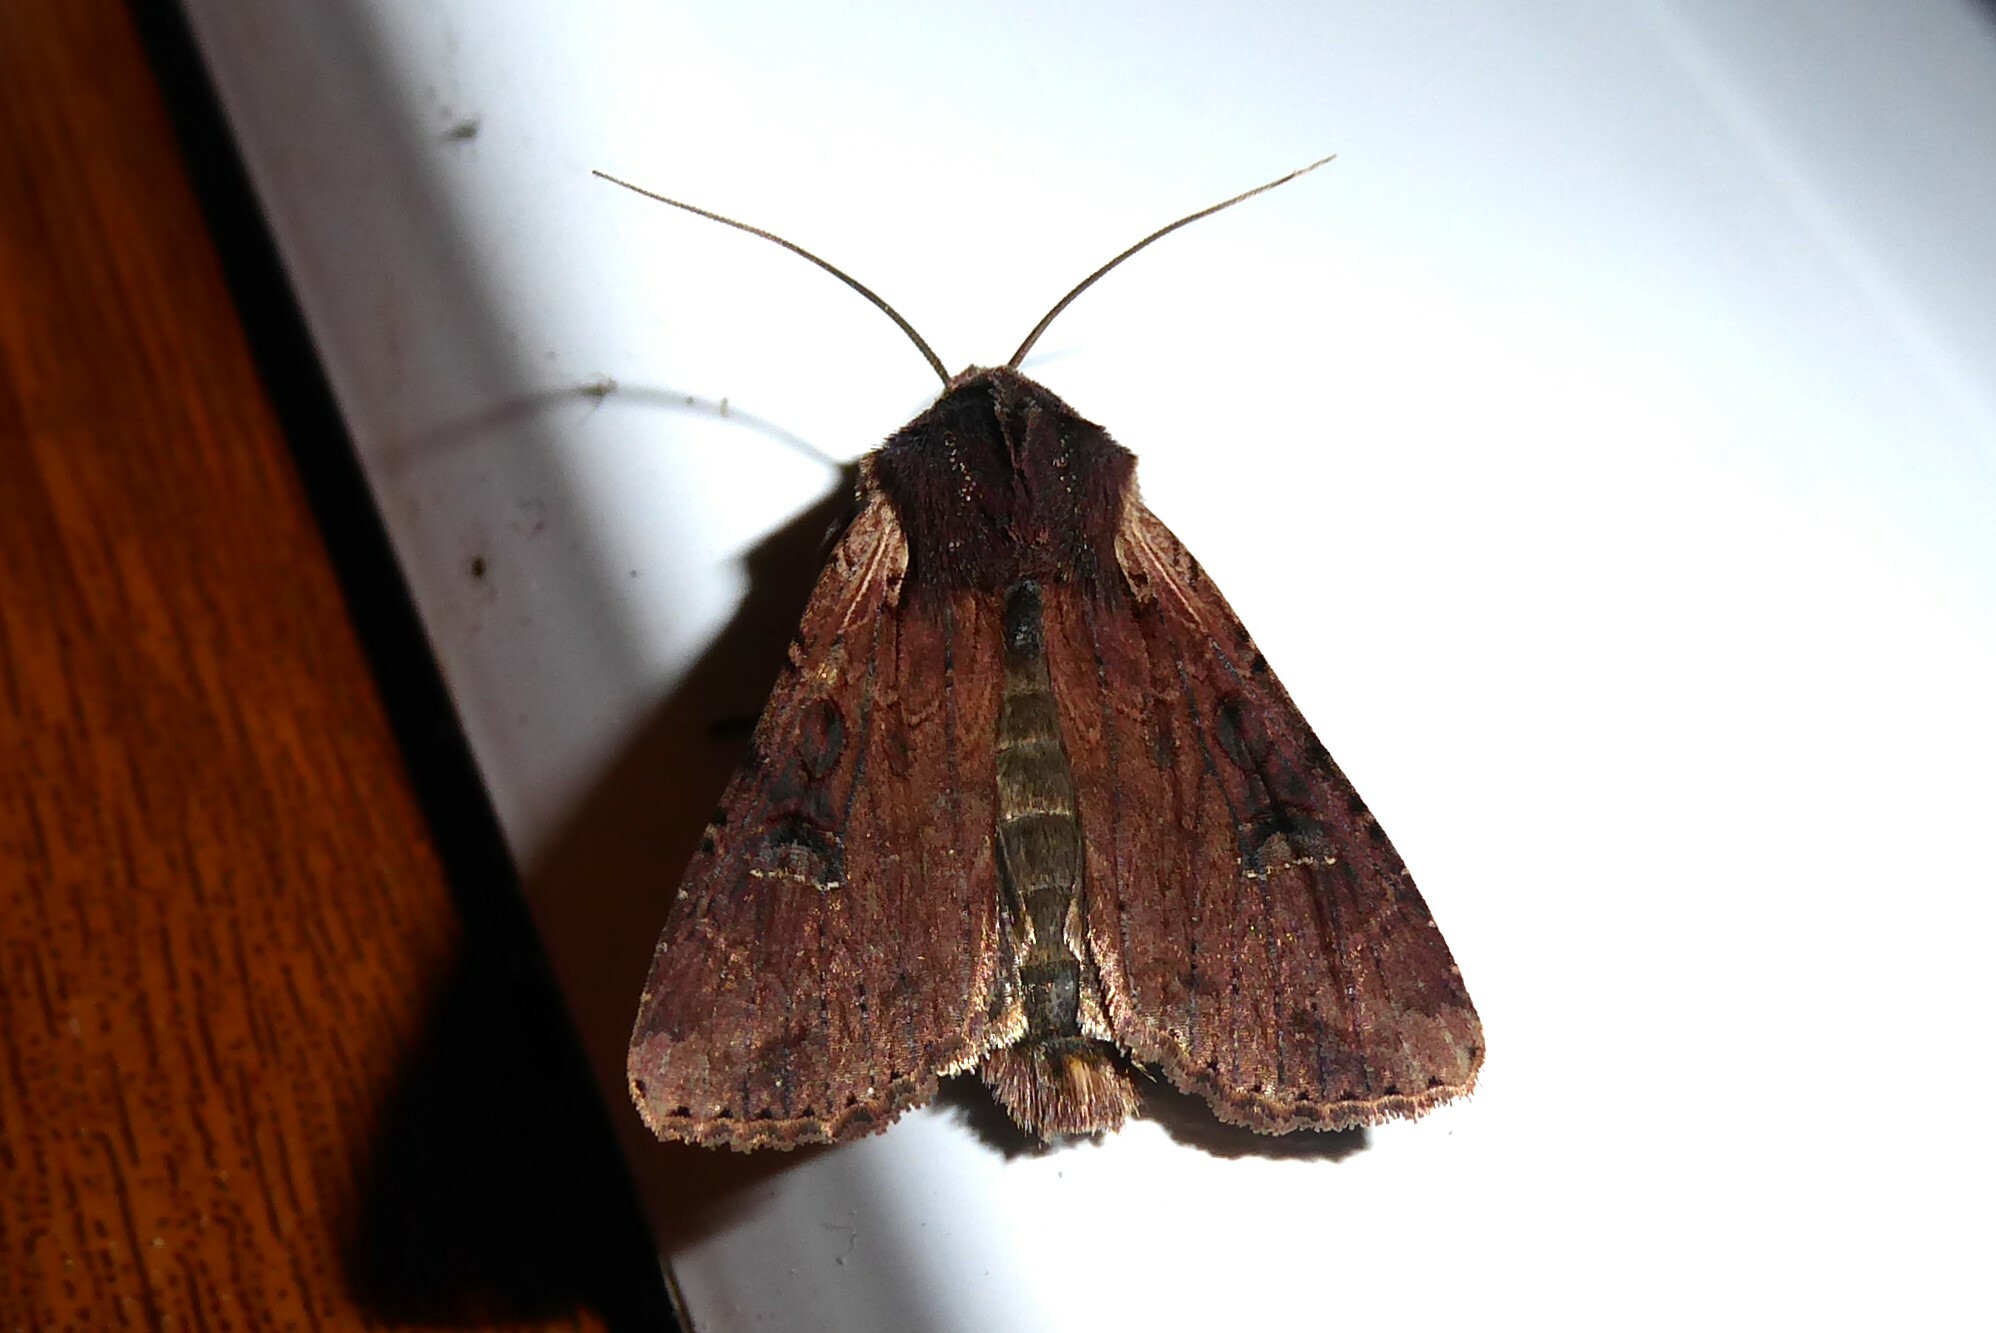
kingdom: Animalia
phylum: Arthropoda
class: Insecta
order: Lepidoptera
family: Noctuidae
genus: Ichneutica
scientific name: Ichneutica omoplaca
